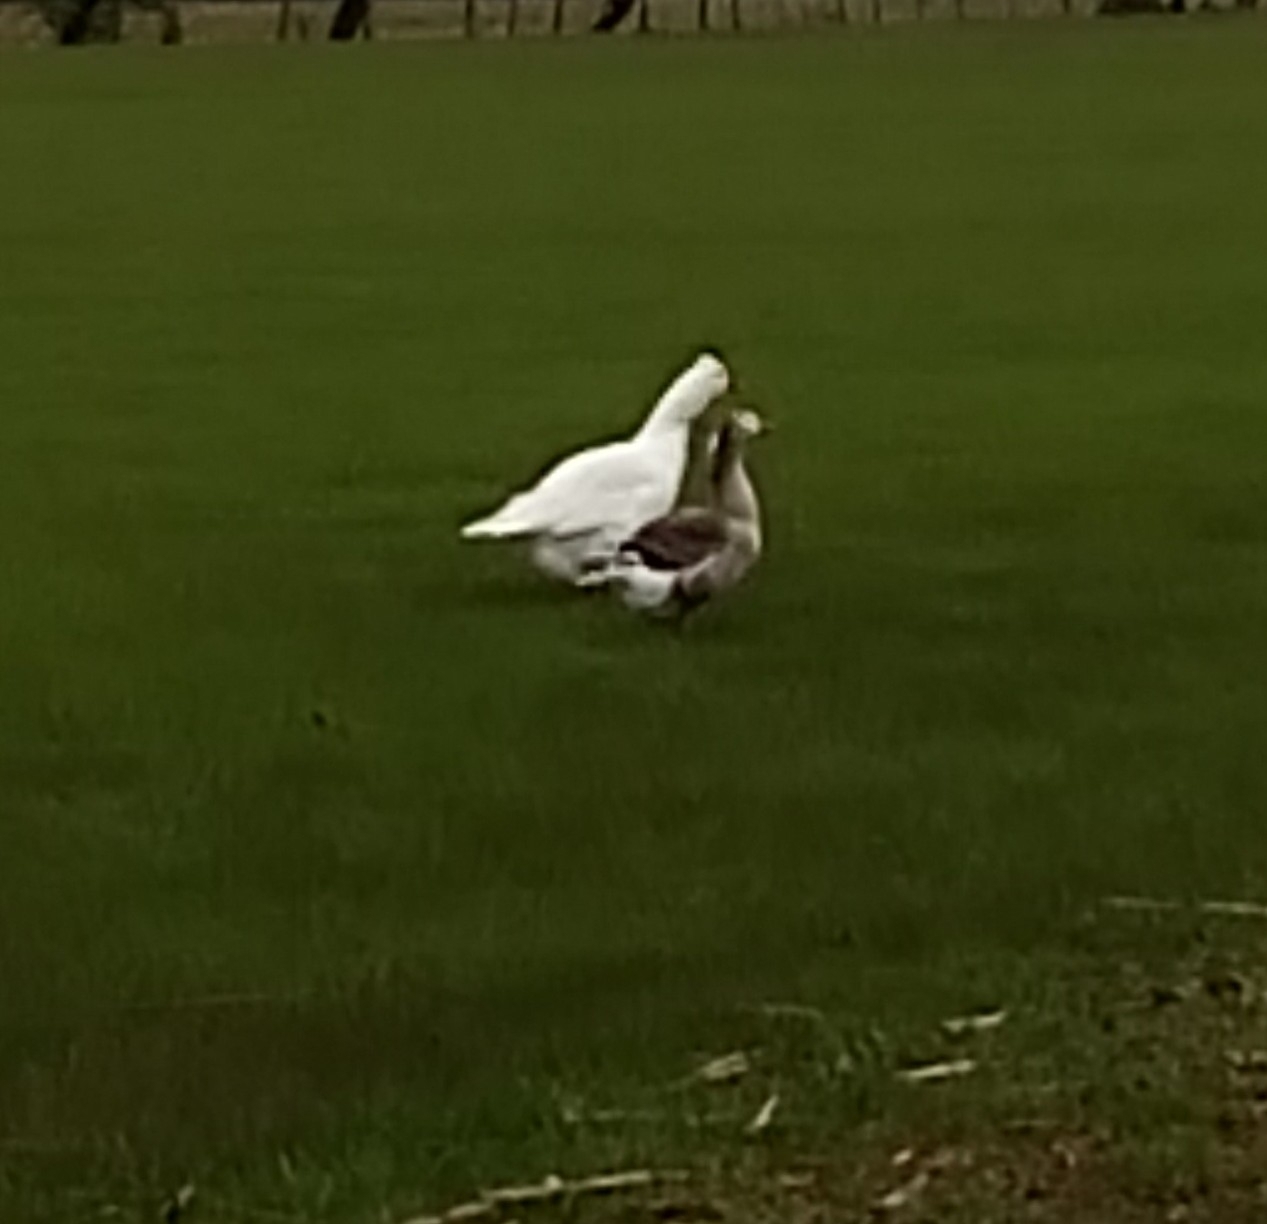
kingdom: Animalia
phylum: Chordata
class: Aves
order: Anseriformes
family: Anatidae
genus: Anser
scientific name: Anser anser
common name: Greylag goose
